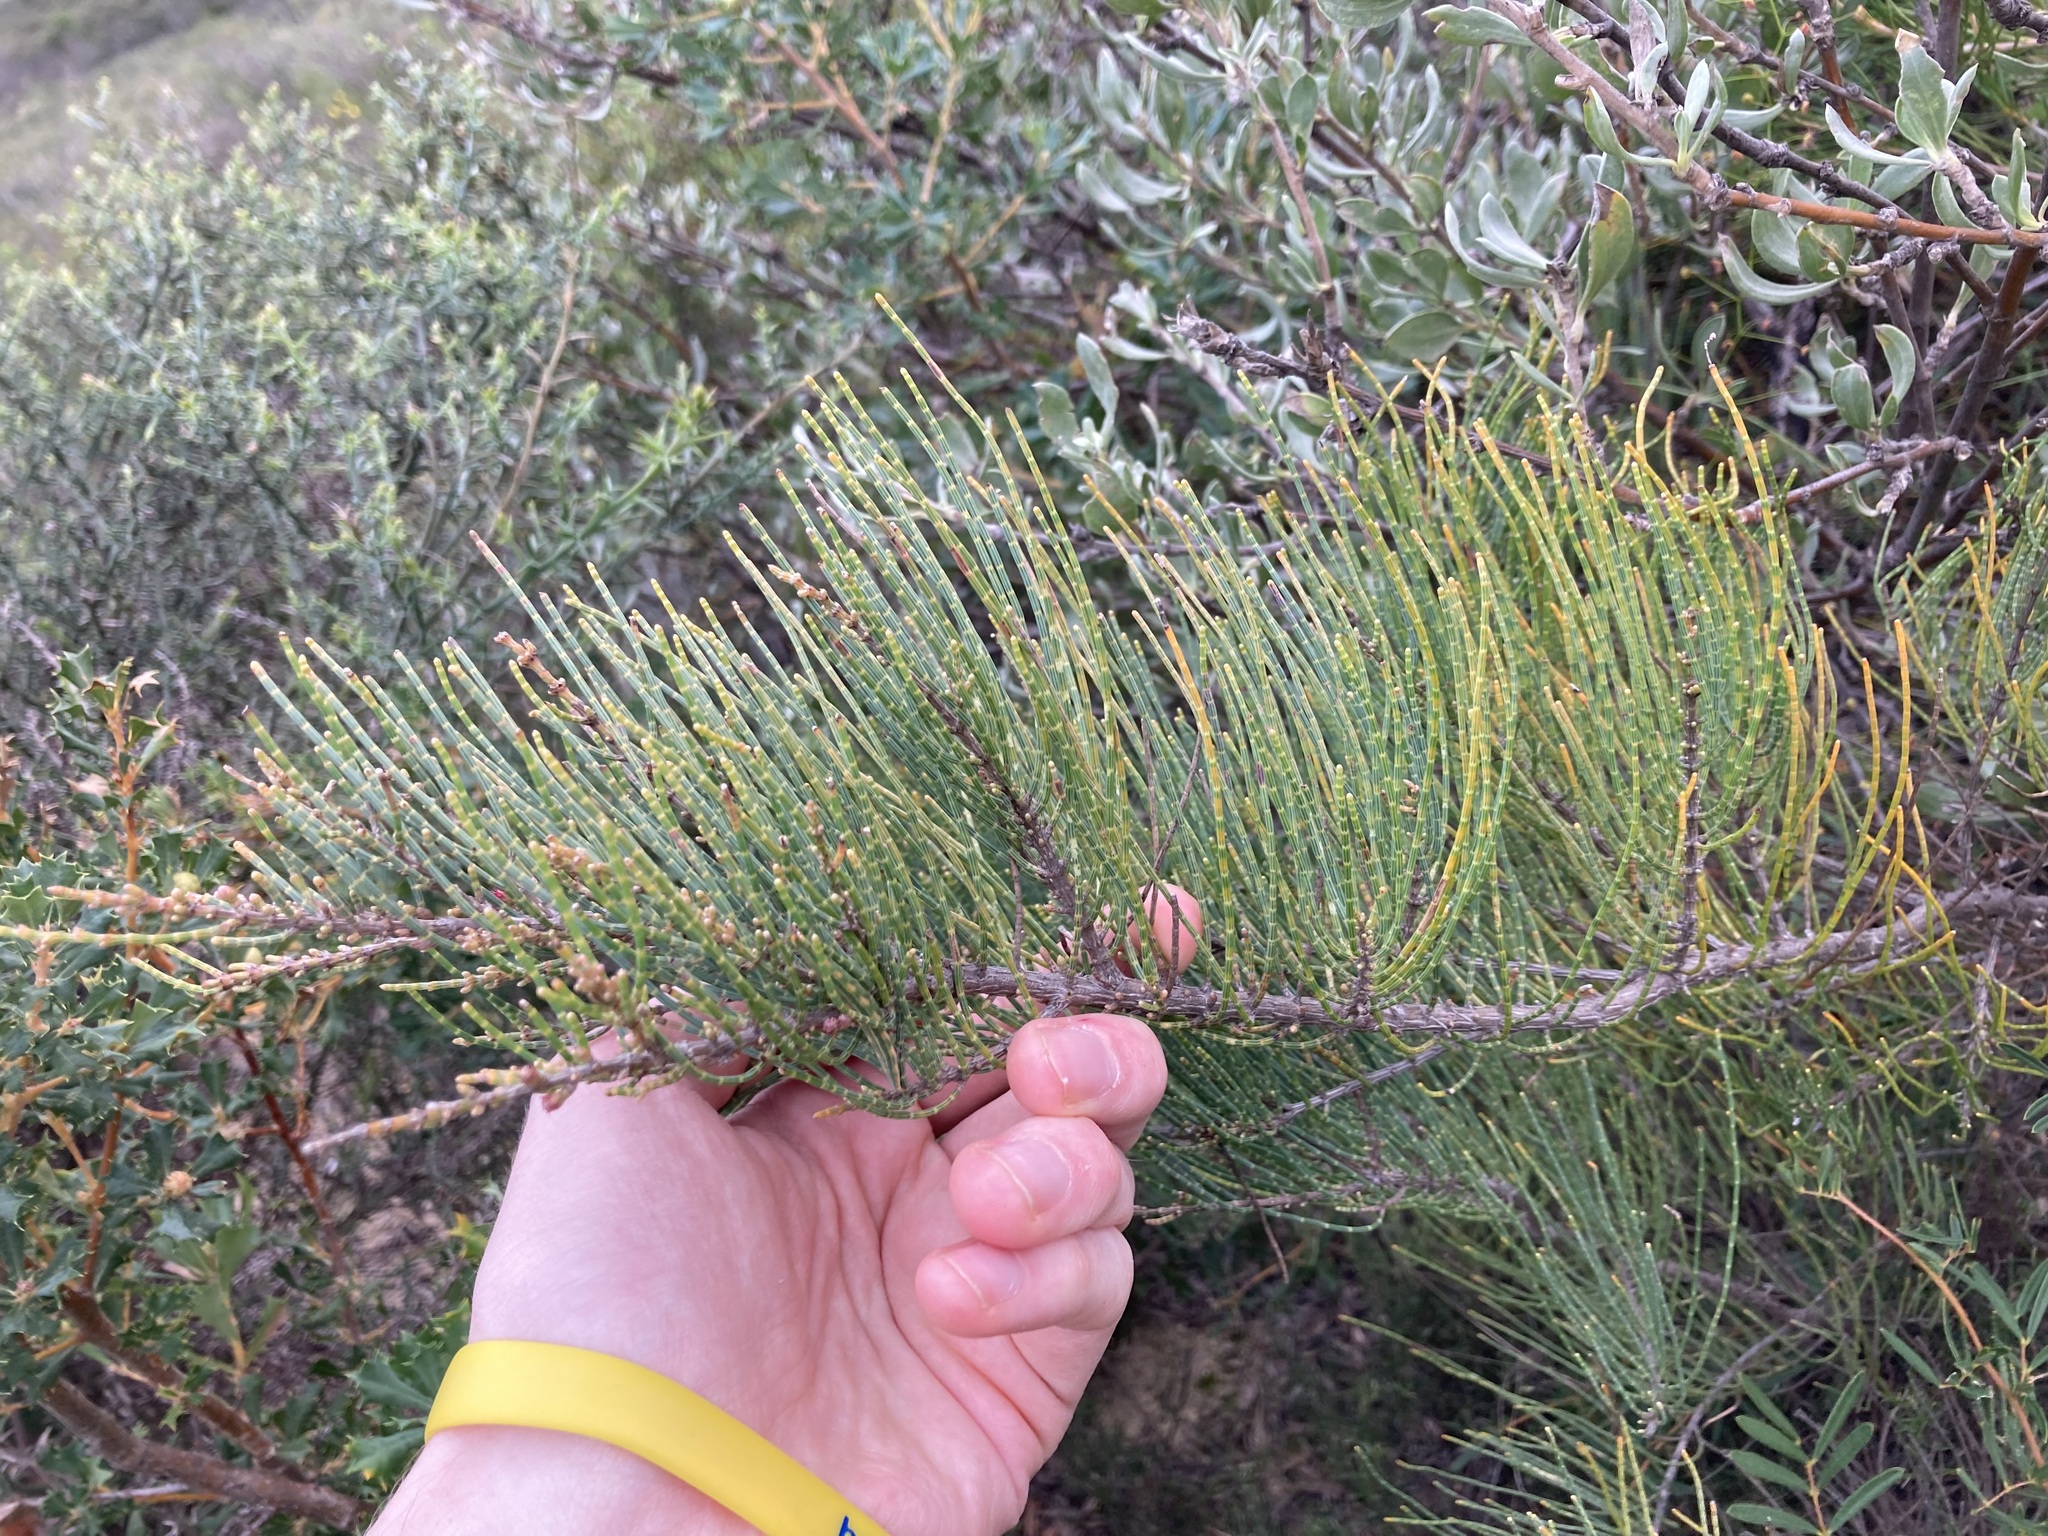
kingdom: Plantae
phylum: Tracheophyta
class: Magnoliopsida
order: Fagales
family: Casuarinaceae
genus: Allocasuarina
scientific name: Allocasuarina humilis
